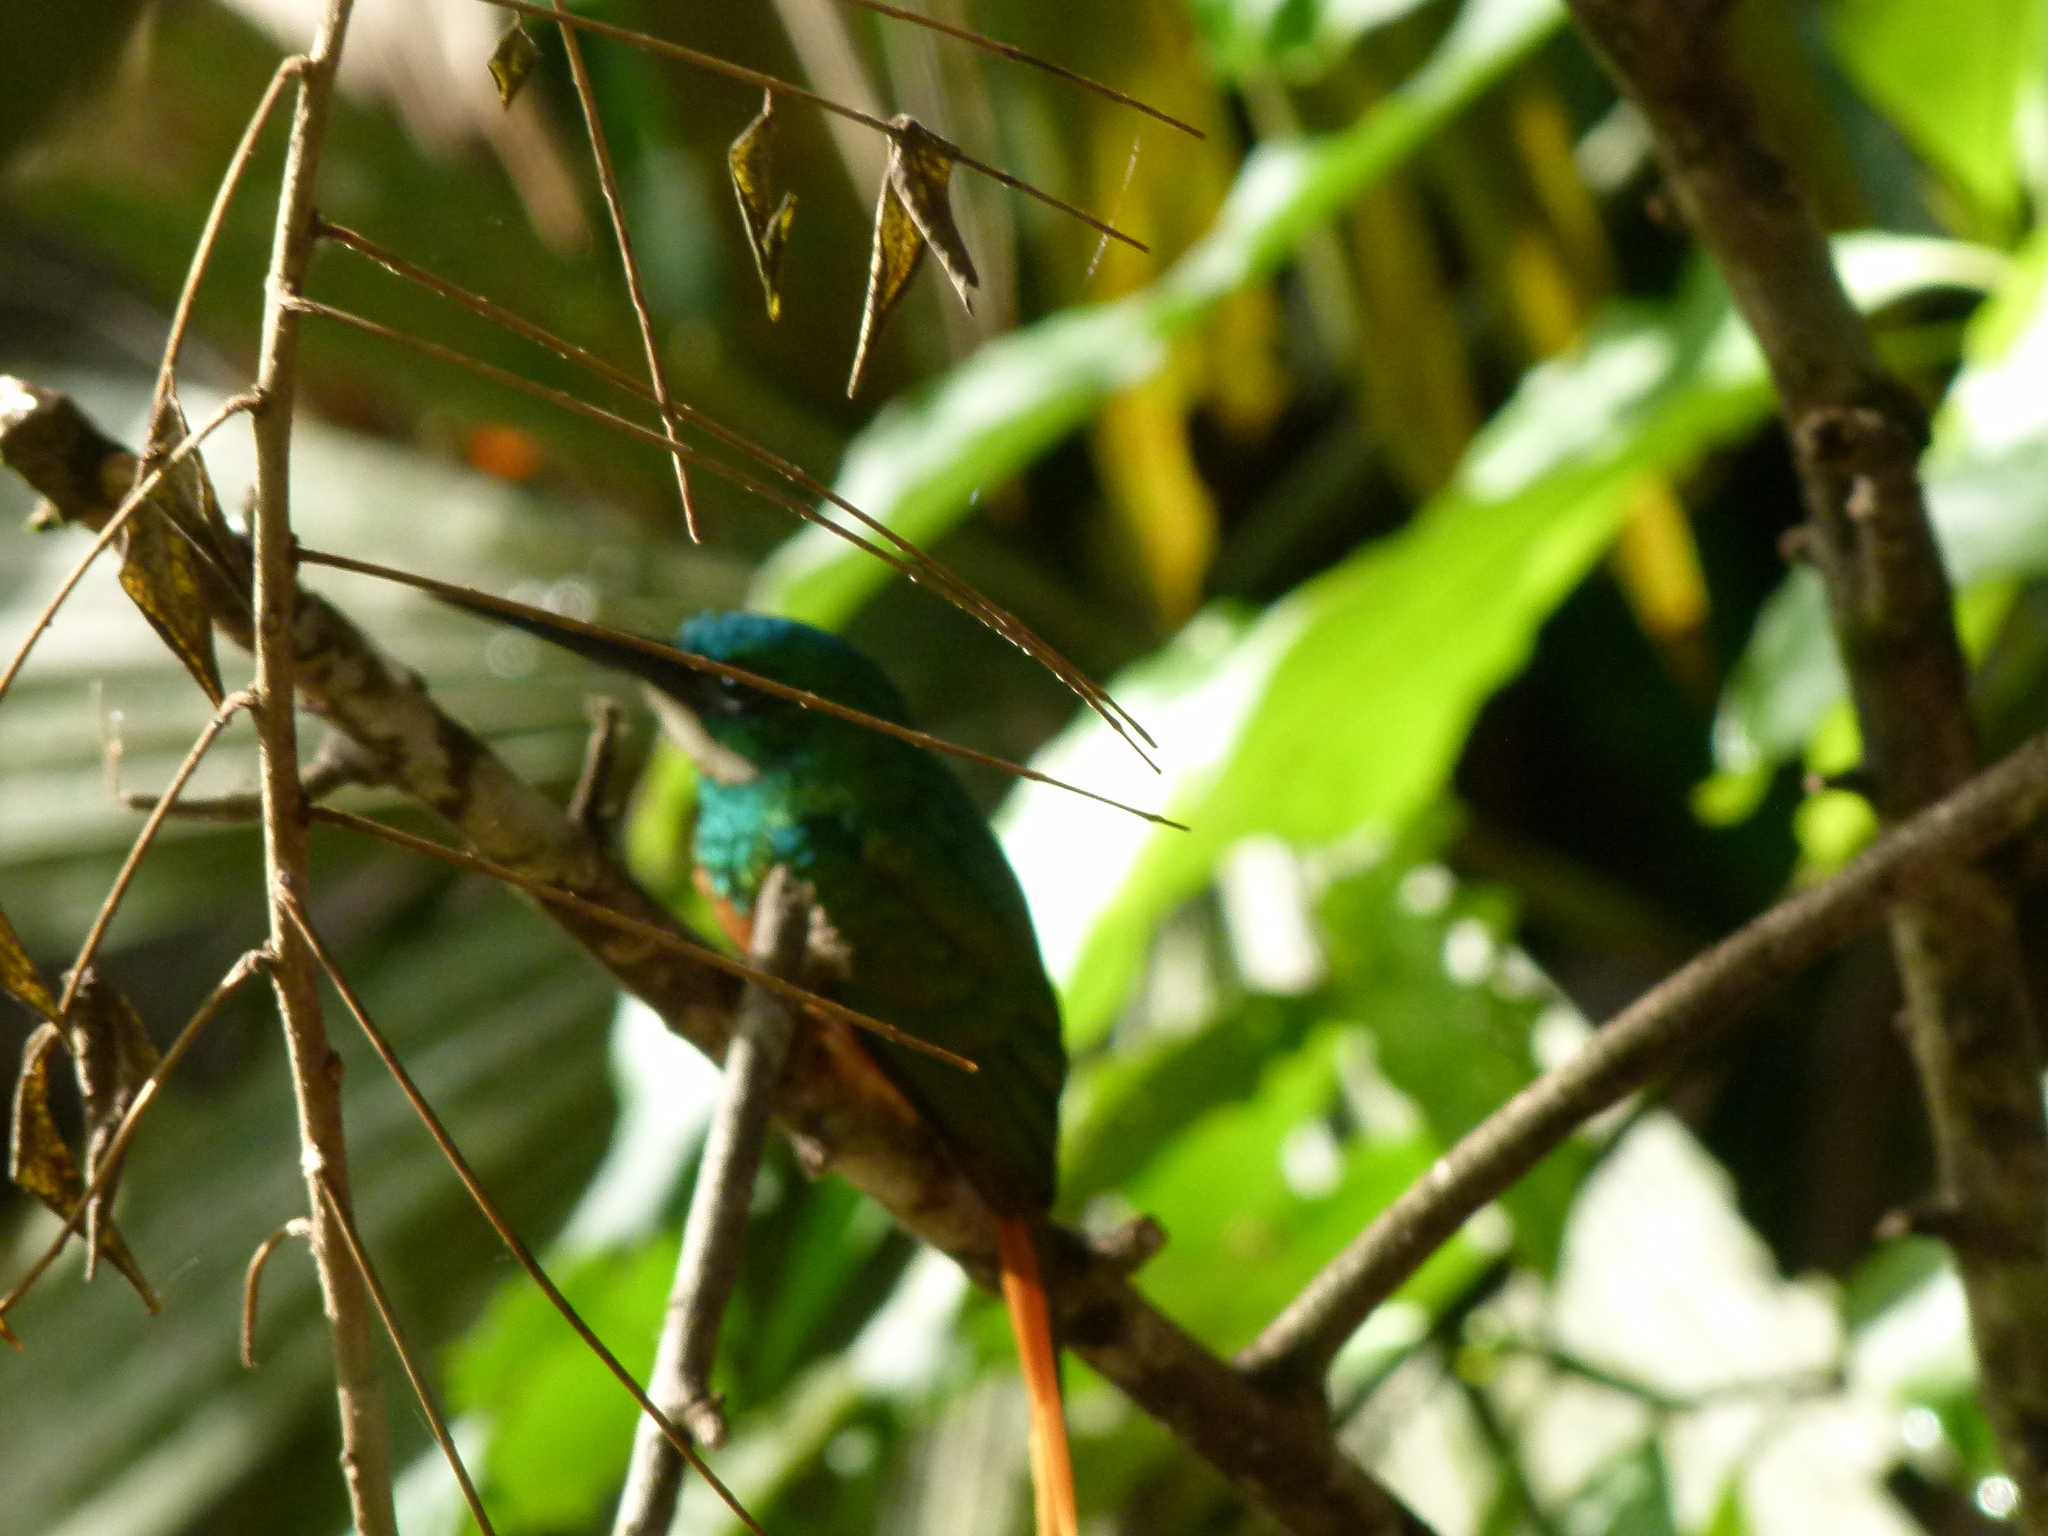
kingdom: Animalia
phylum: Chordata
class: Aves
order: Piciformes
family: Galbulidae
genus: Galbula
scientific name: Galbula ruficauda
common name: Rufous-tailed jacamar
